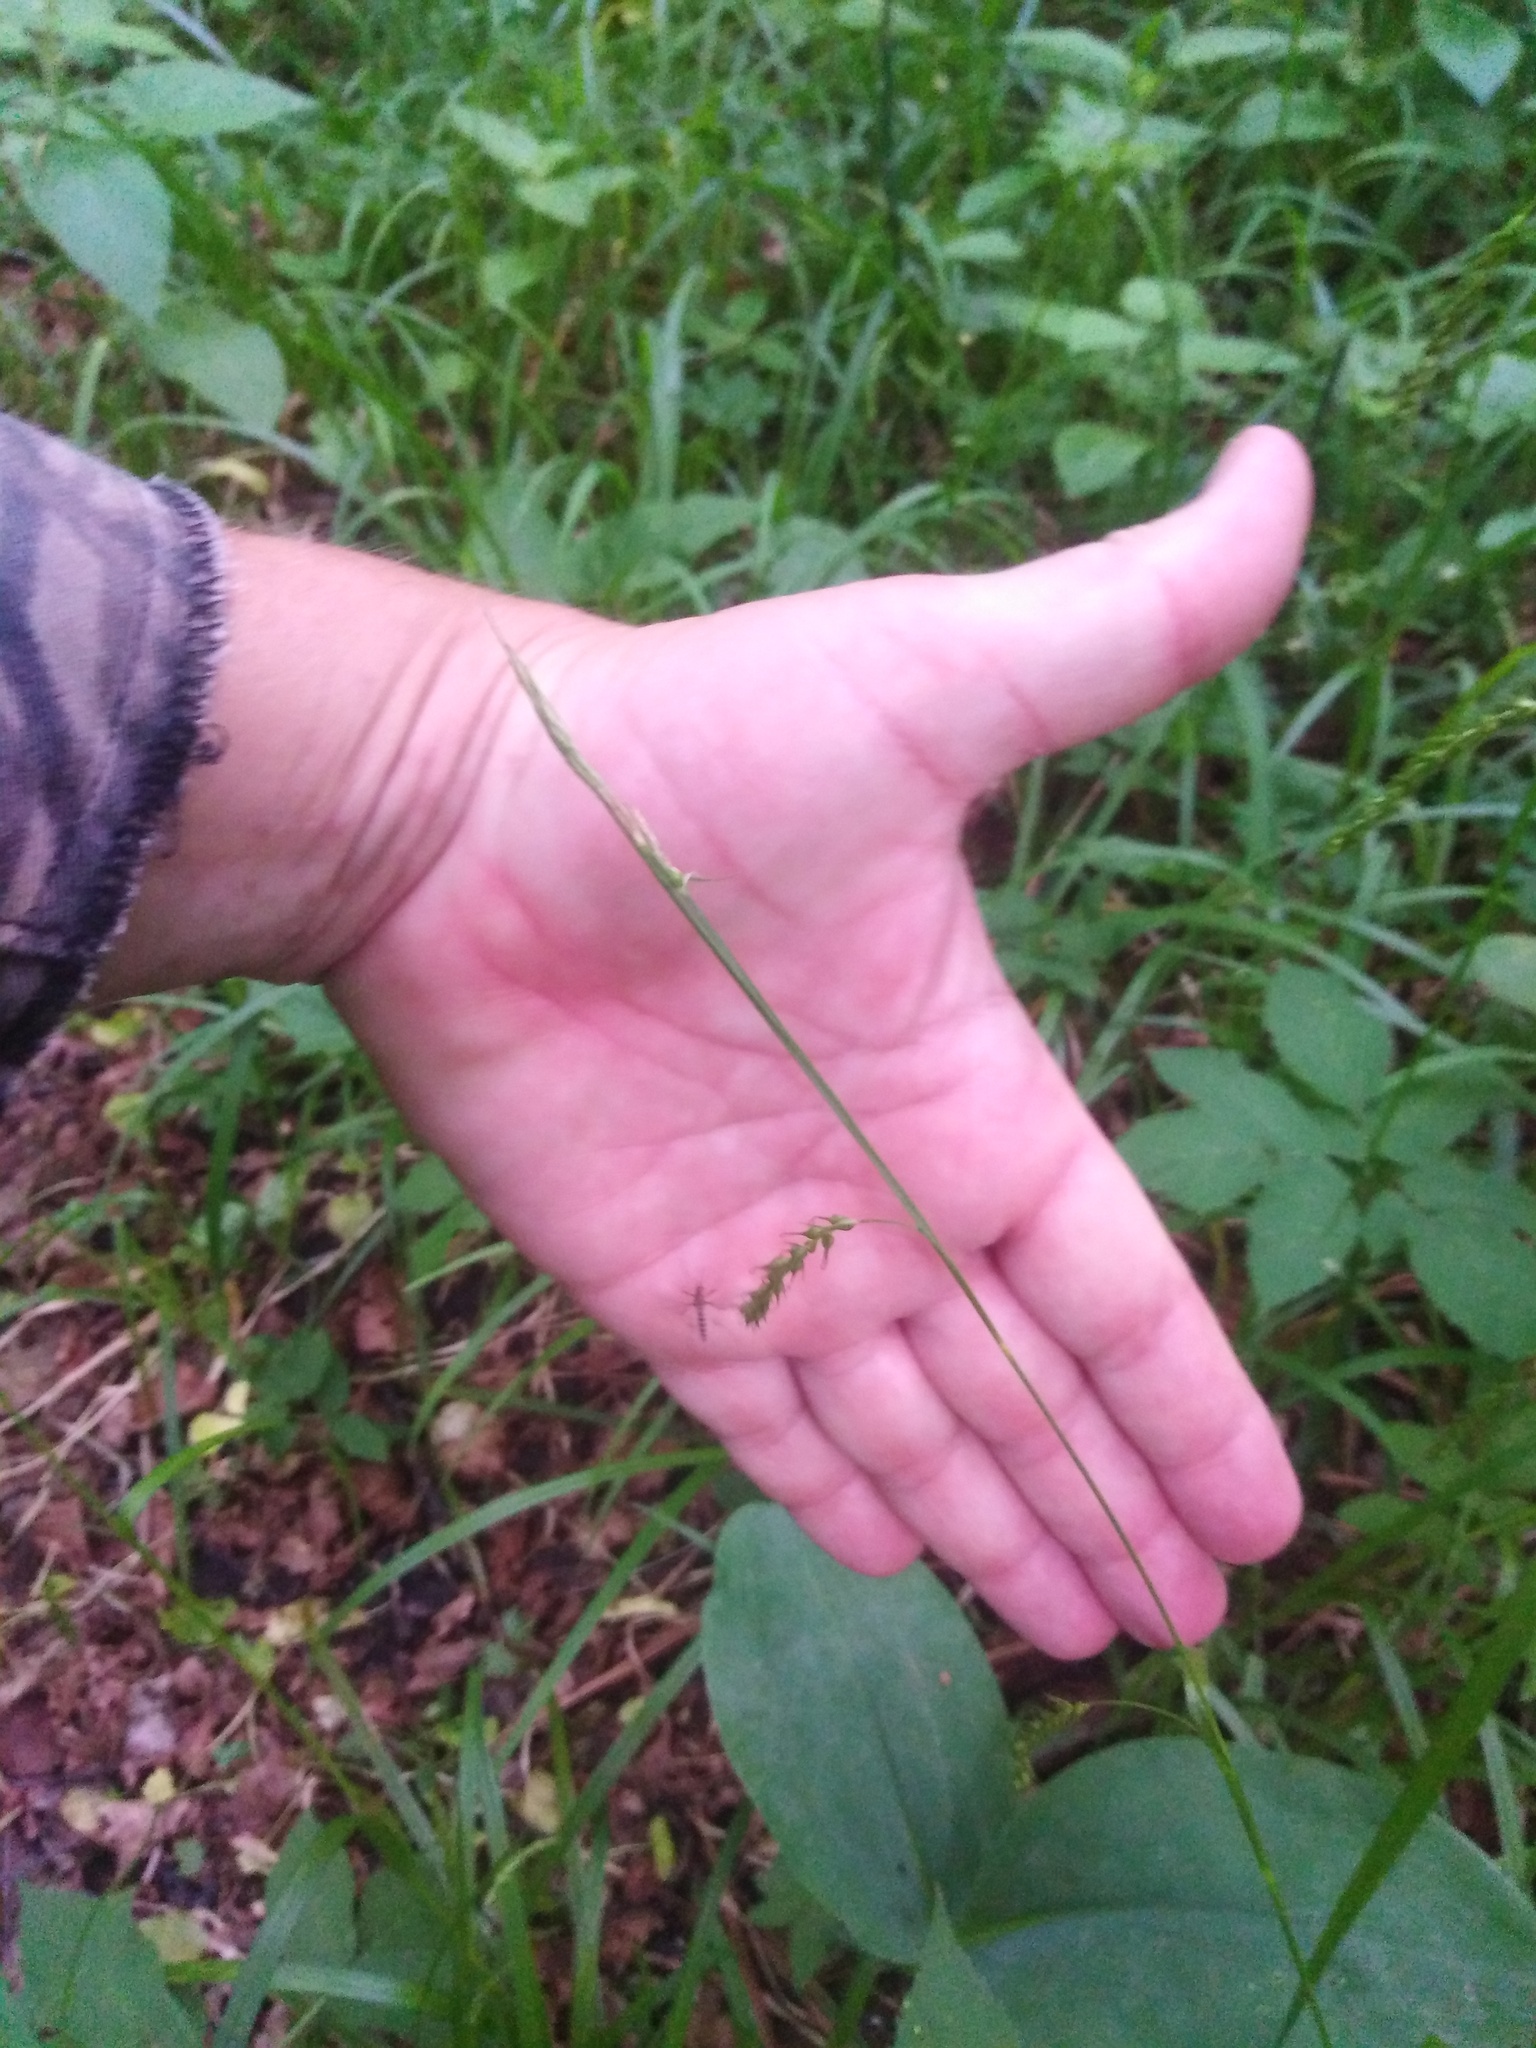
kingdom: Plantae
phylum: Tracheophyta
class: Liliopsida
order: Poales
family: Cyperaceae
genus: Carex
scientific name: Carex sylvatica
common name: Wood-sedge
